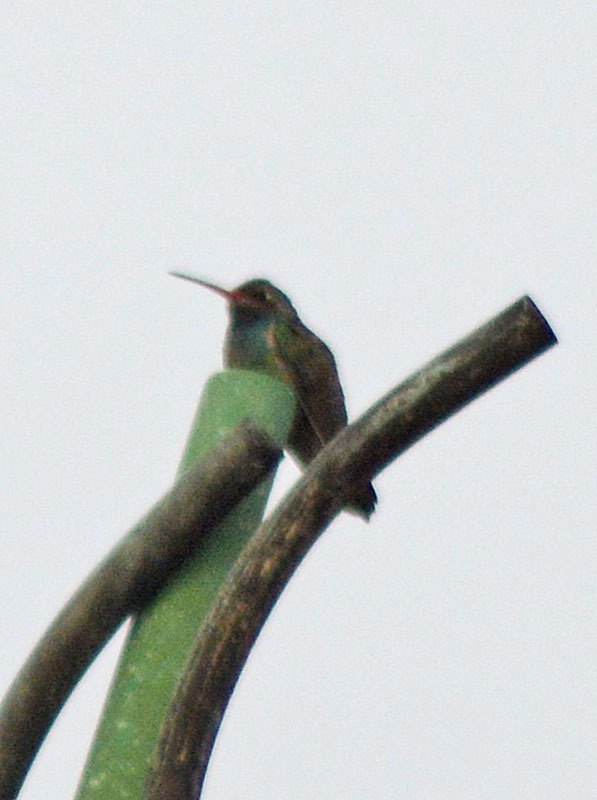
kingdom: Animalia
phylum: Chordata
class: Aves
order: Apodiformes
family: Trochilidae
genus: Cynanthus
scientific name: Cynanthus latirostris
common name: Broad-billed hummingbird
